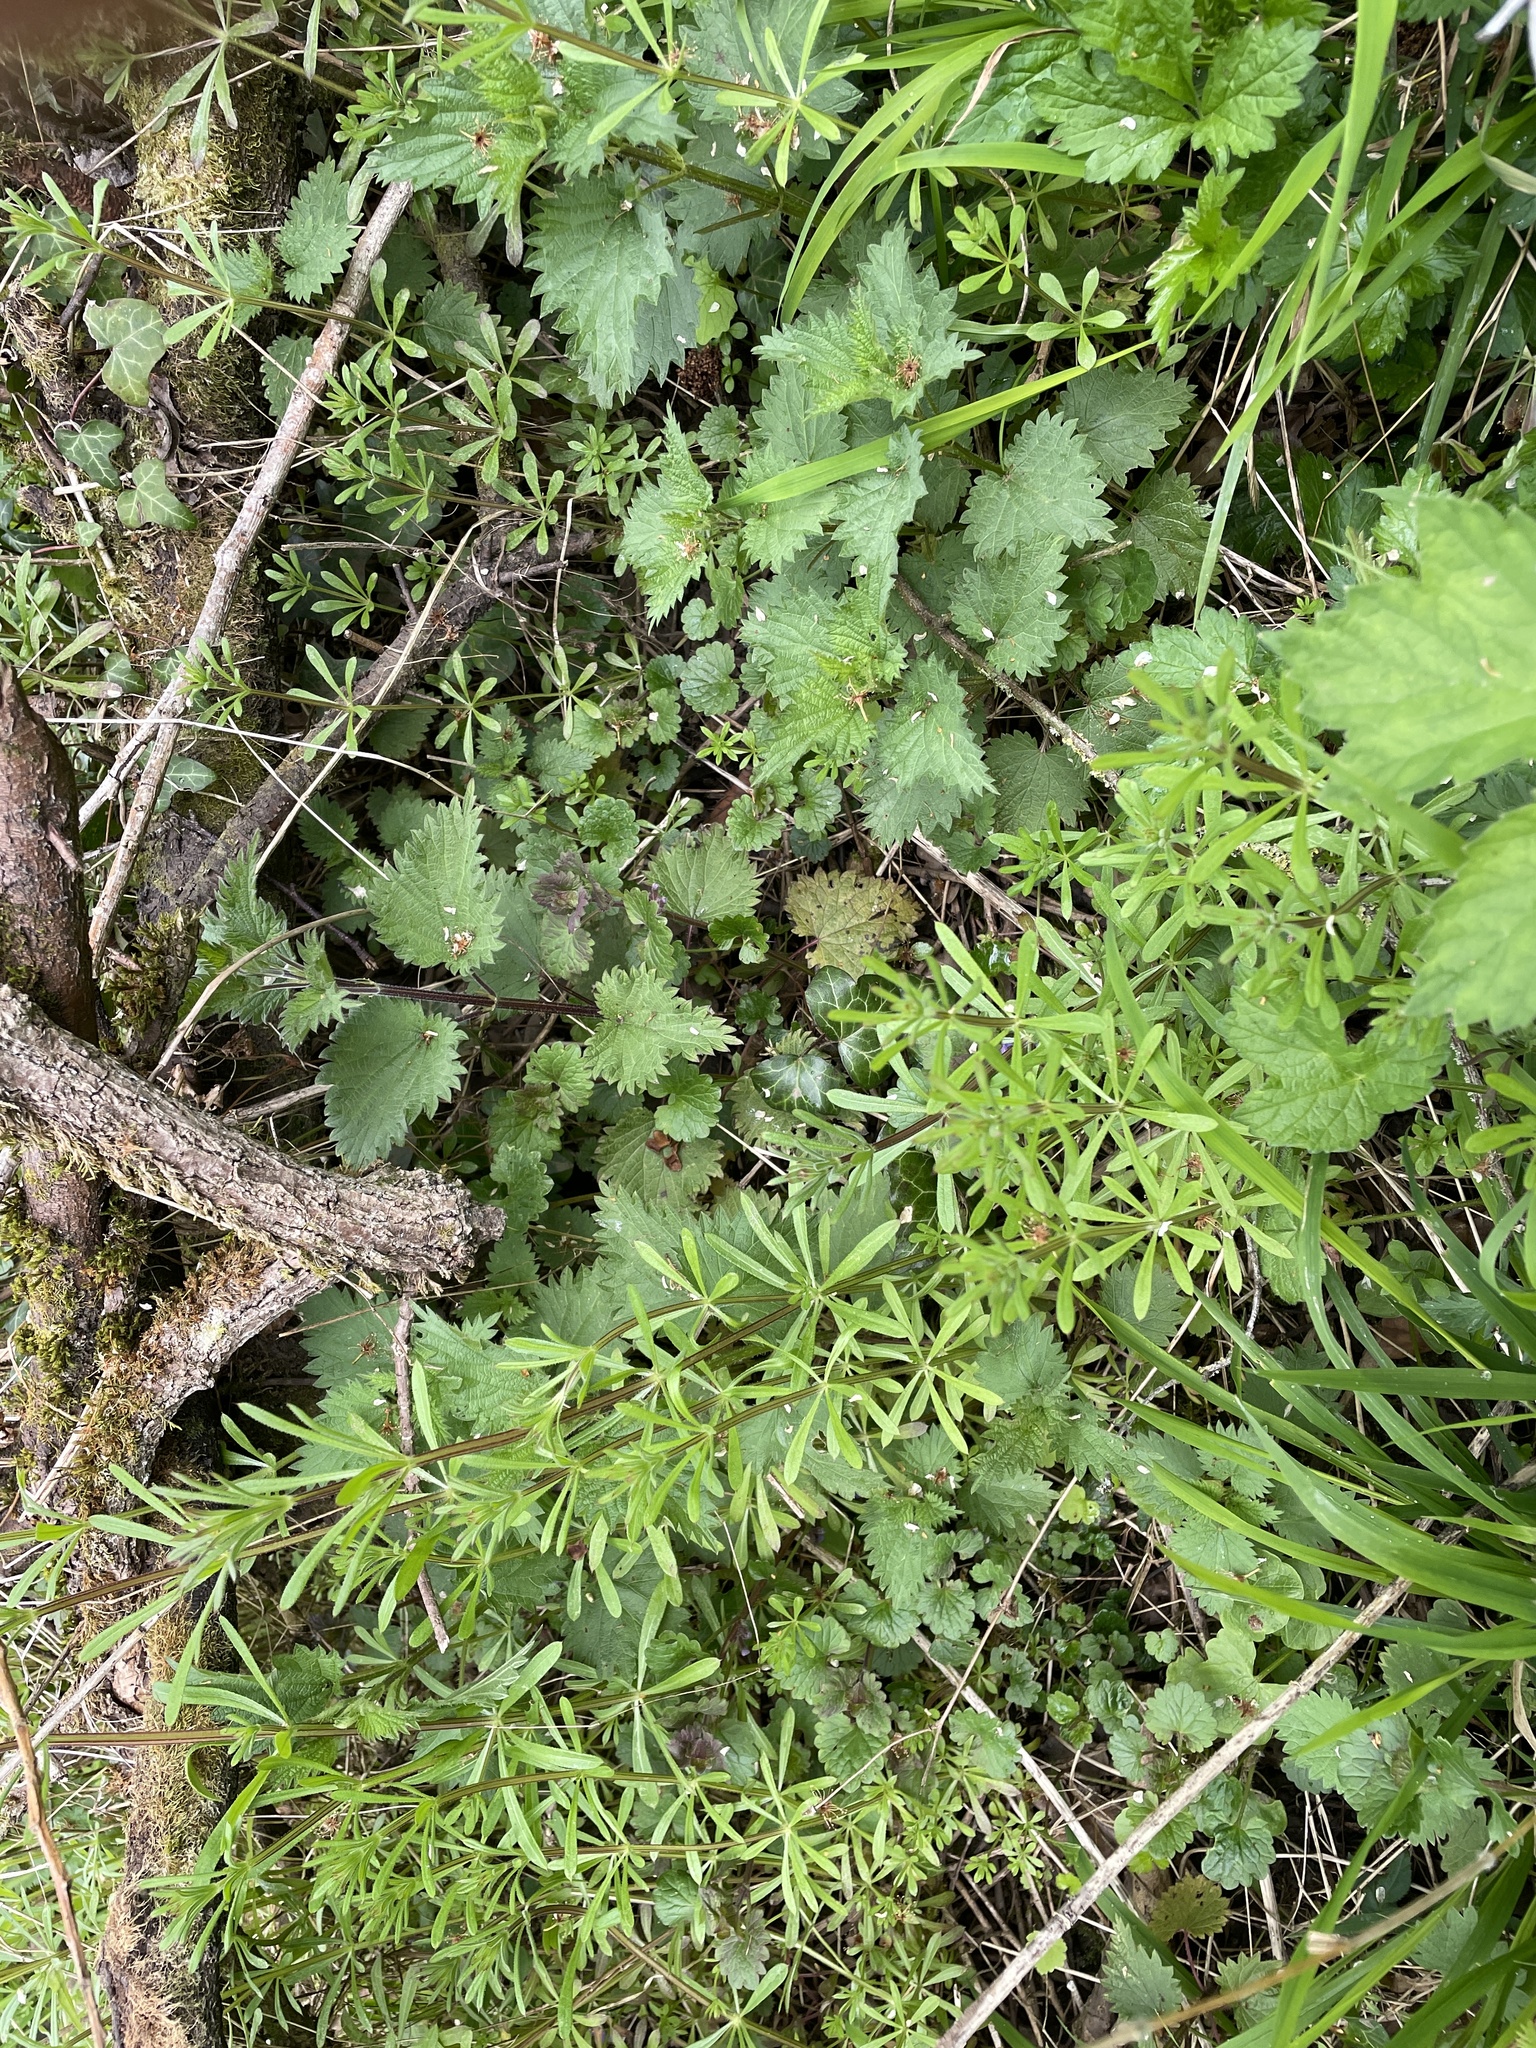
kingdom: Plantae
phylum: Tracheophyta
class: Magnoliopsida
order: Gentianales
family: Rubiaceae
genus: Galium
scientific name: Galium aparine
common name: Cleavers
